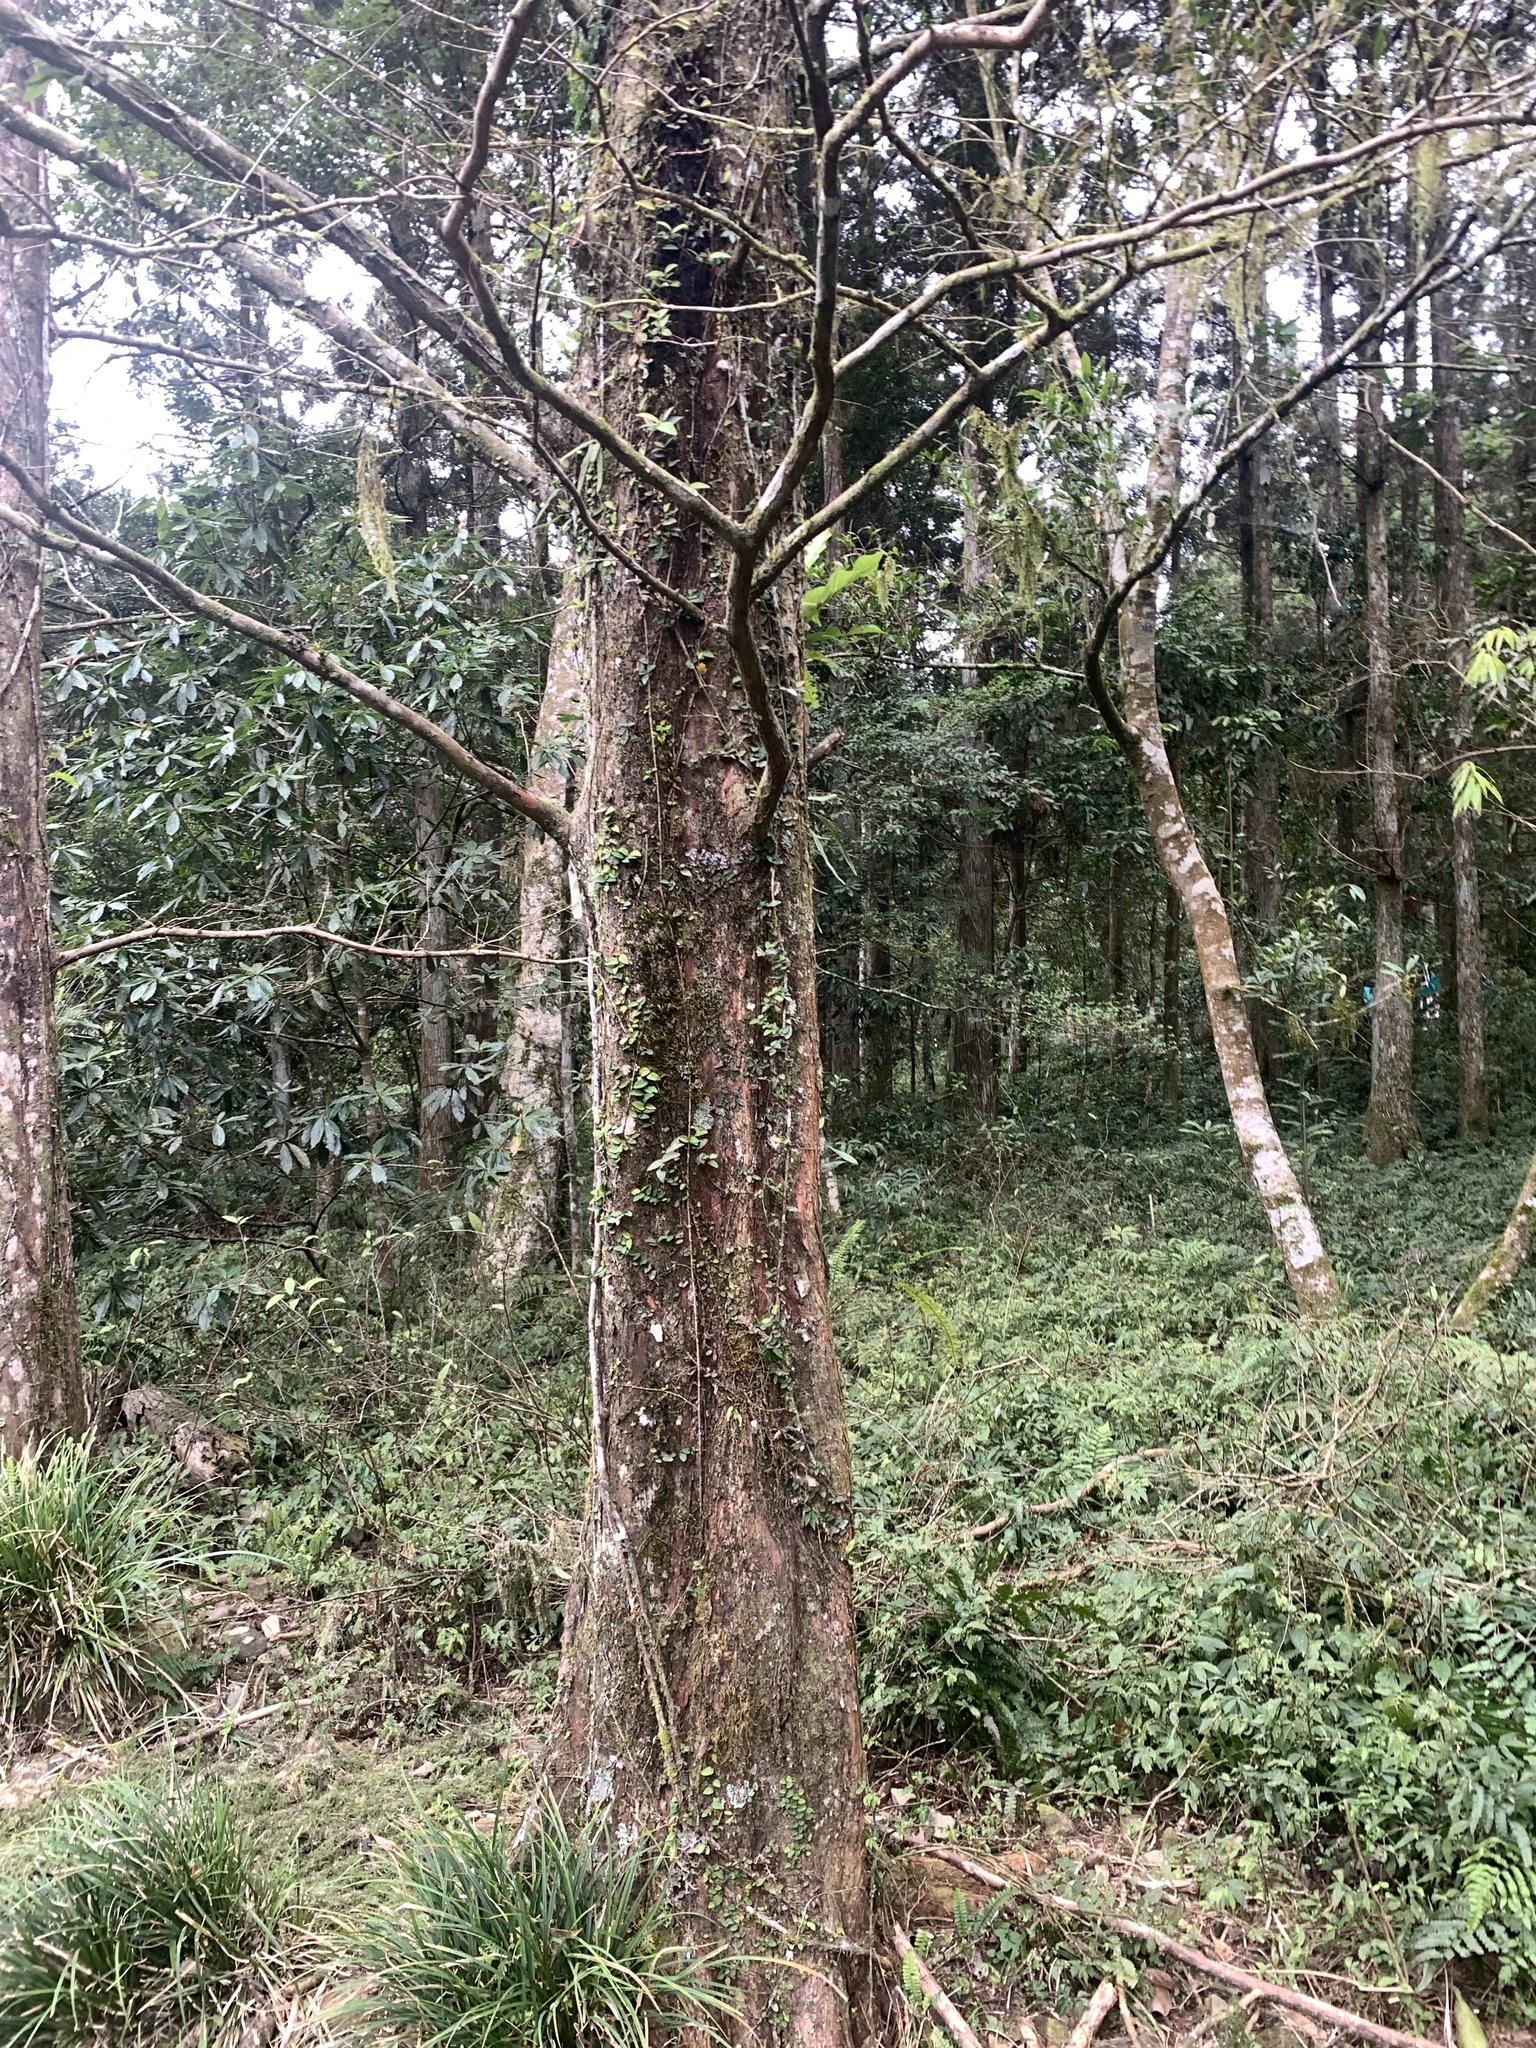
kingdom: Plantae
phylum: Tracheophyta
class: Magnoliopsida
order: Fagales
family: Fagaceae
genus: Quercus
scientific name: Quercus longinux
